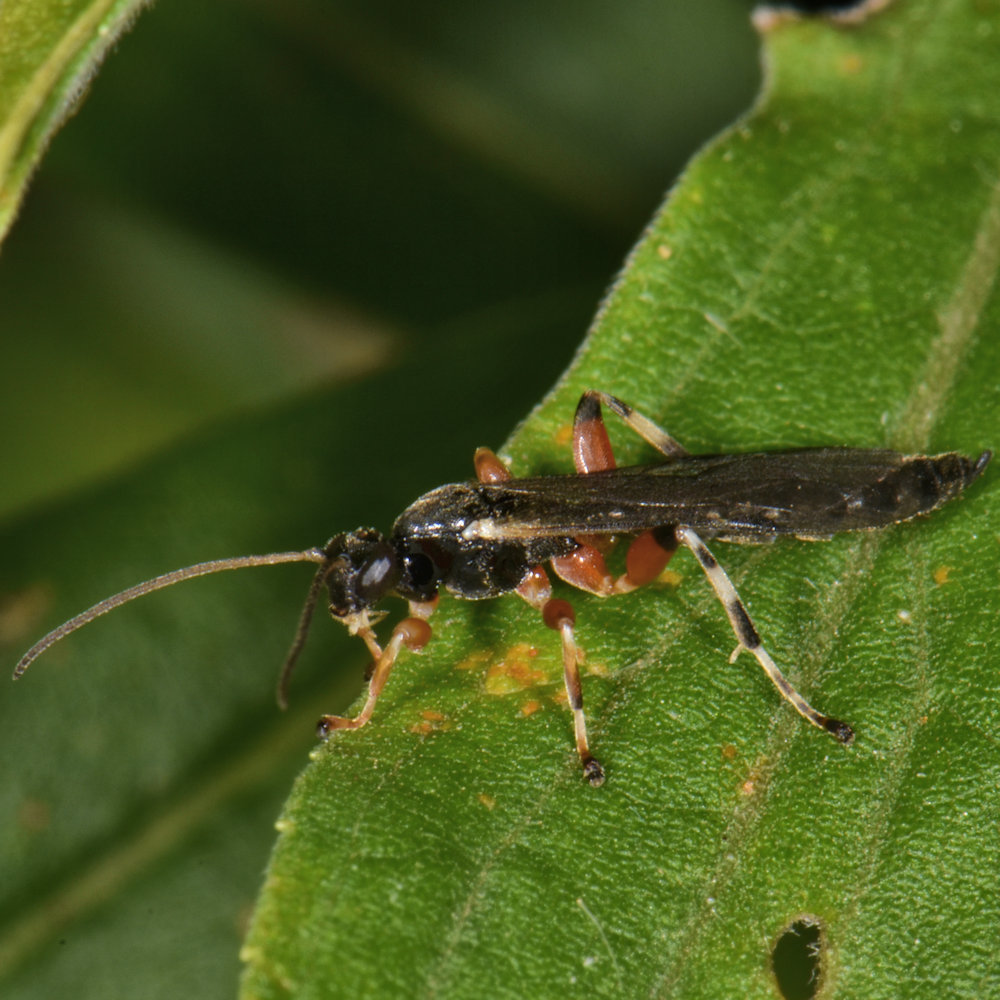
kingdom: Animalia
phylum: Arthropoda
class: Insecta
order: Hymenoptera
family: Ichneumonidae
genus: Schizopyga
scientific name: Schizopyga frigida
